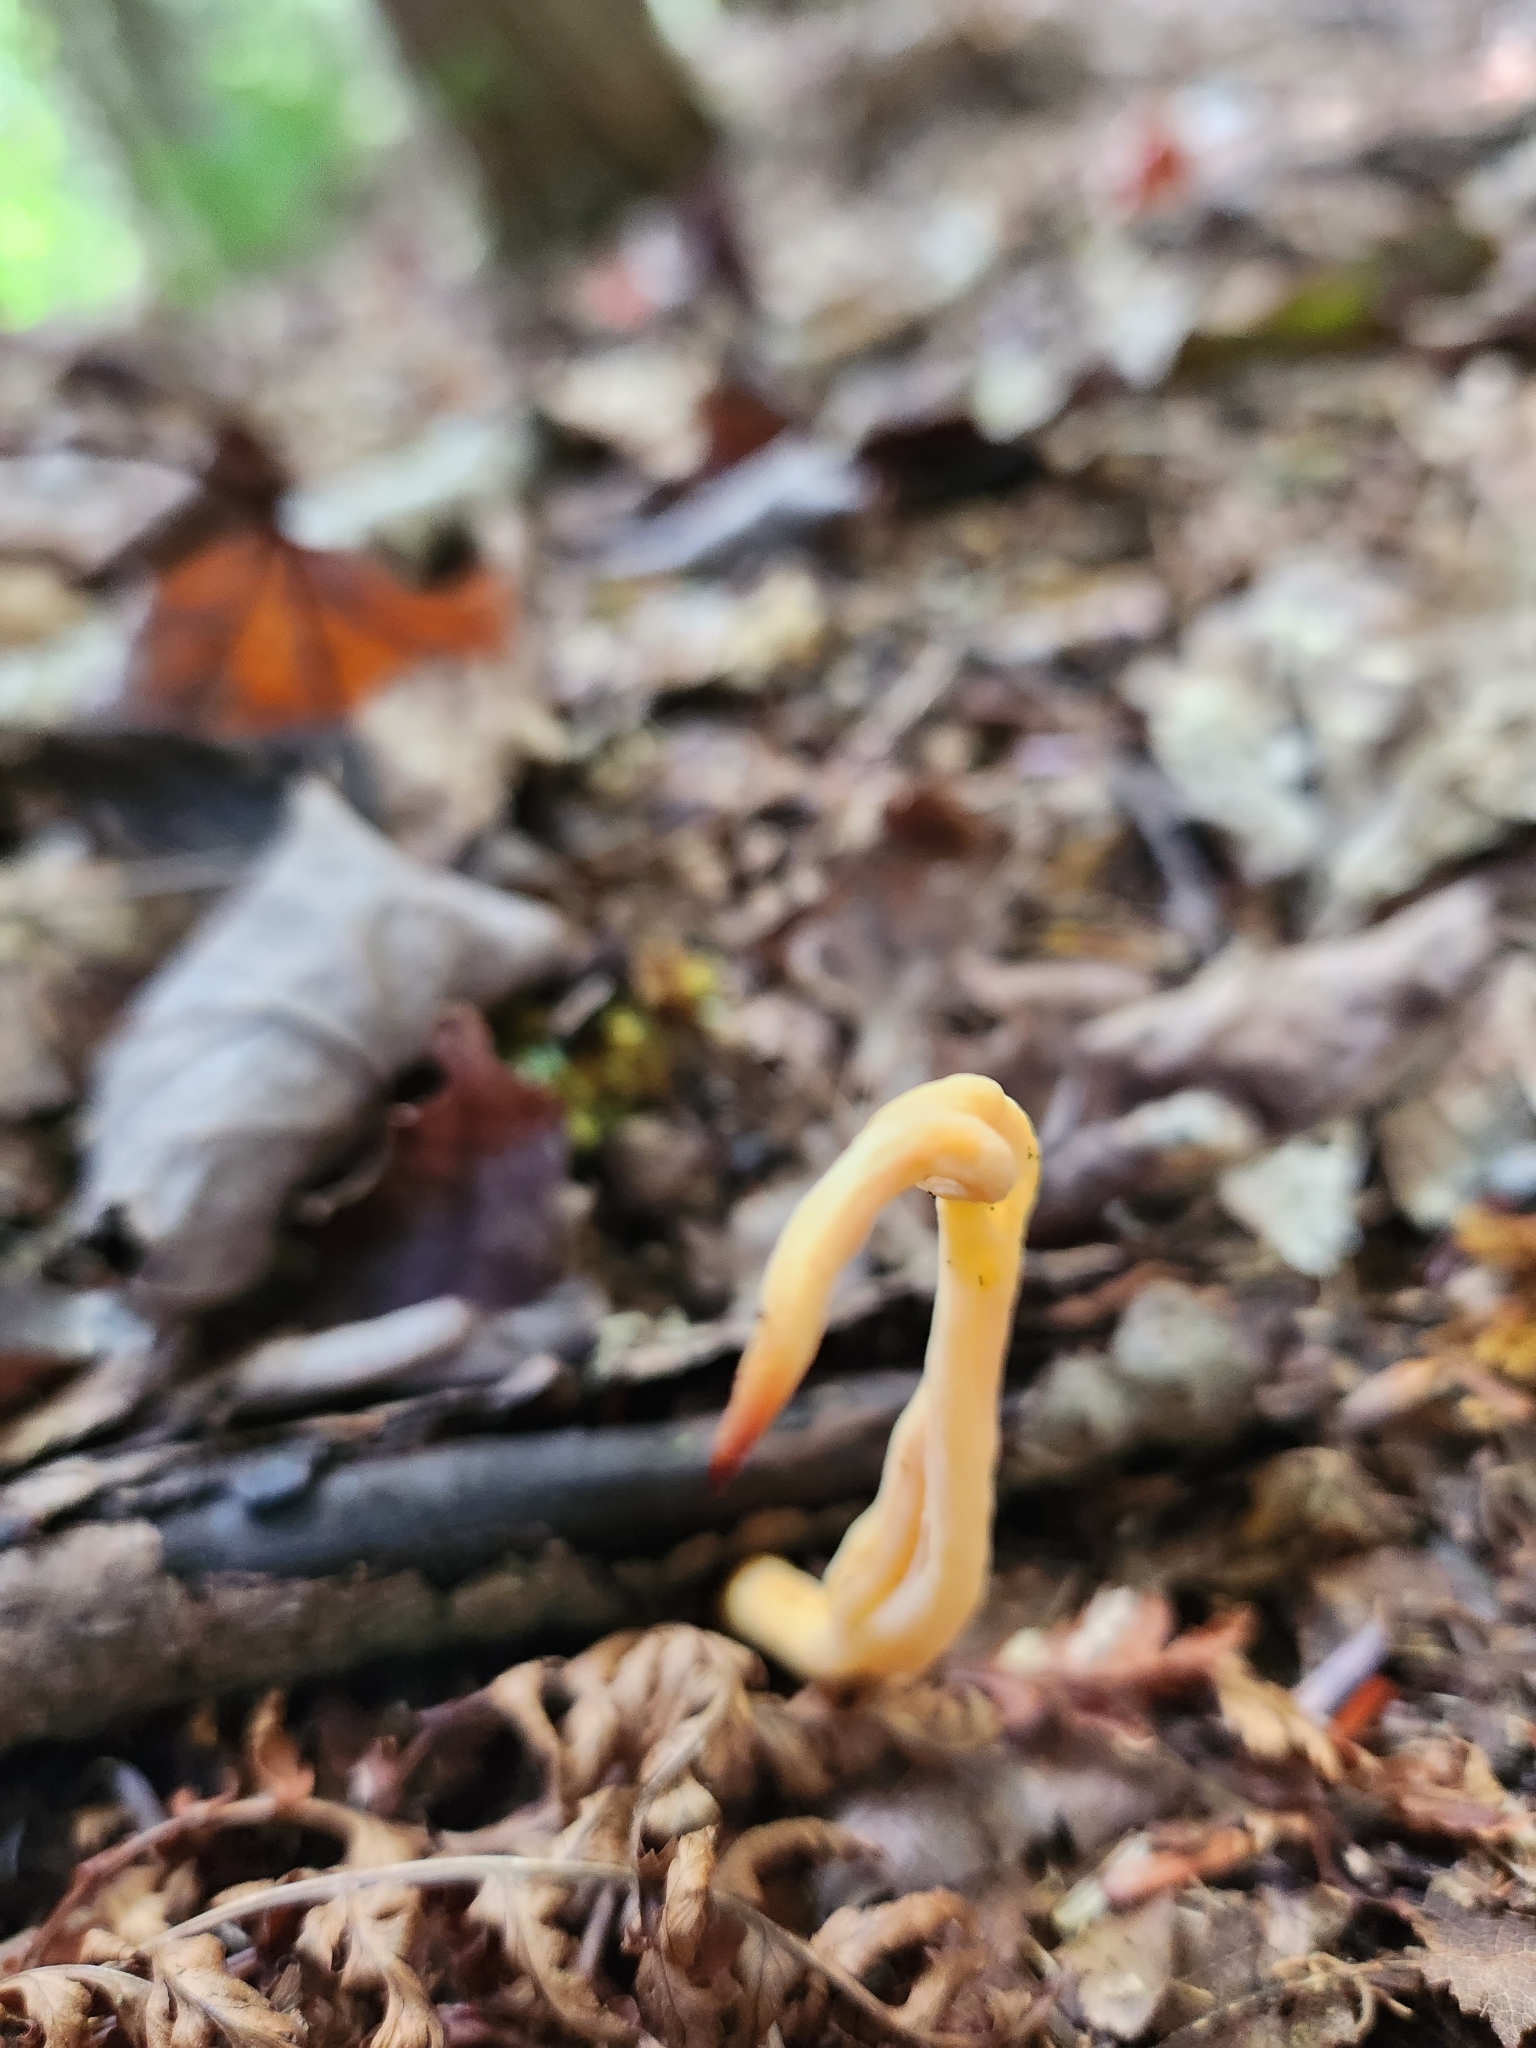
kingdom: Fungi
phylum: Basidiomycota
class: Agaricomycetes
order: Agaricales
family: Clavariaceae
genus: Clavulinopsis
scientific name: Clavulinopsis appalachiensis
